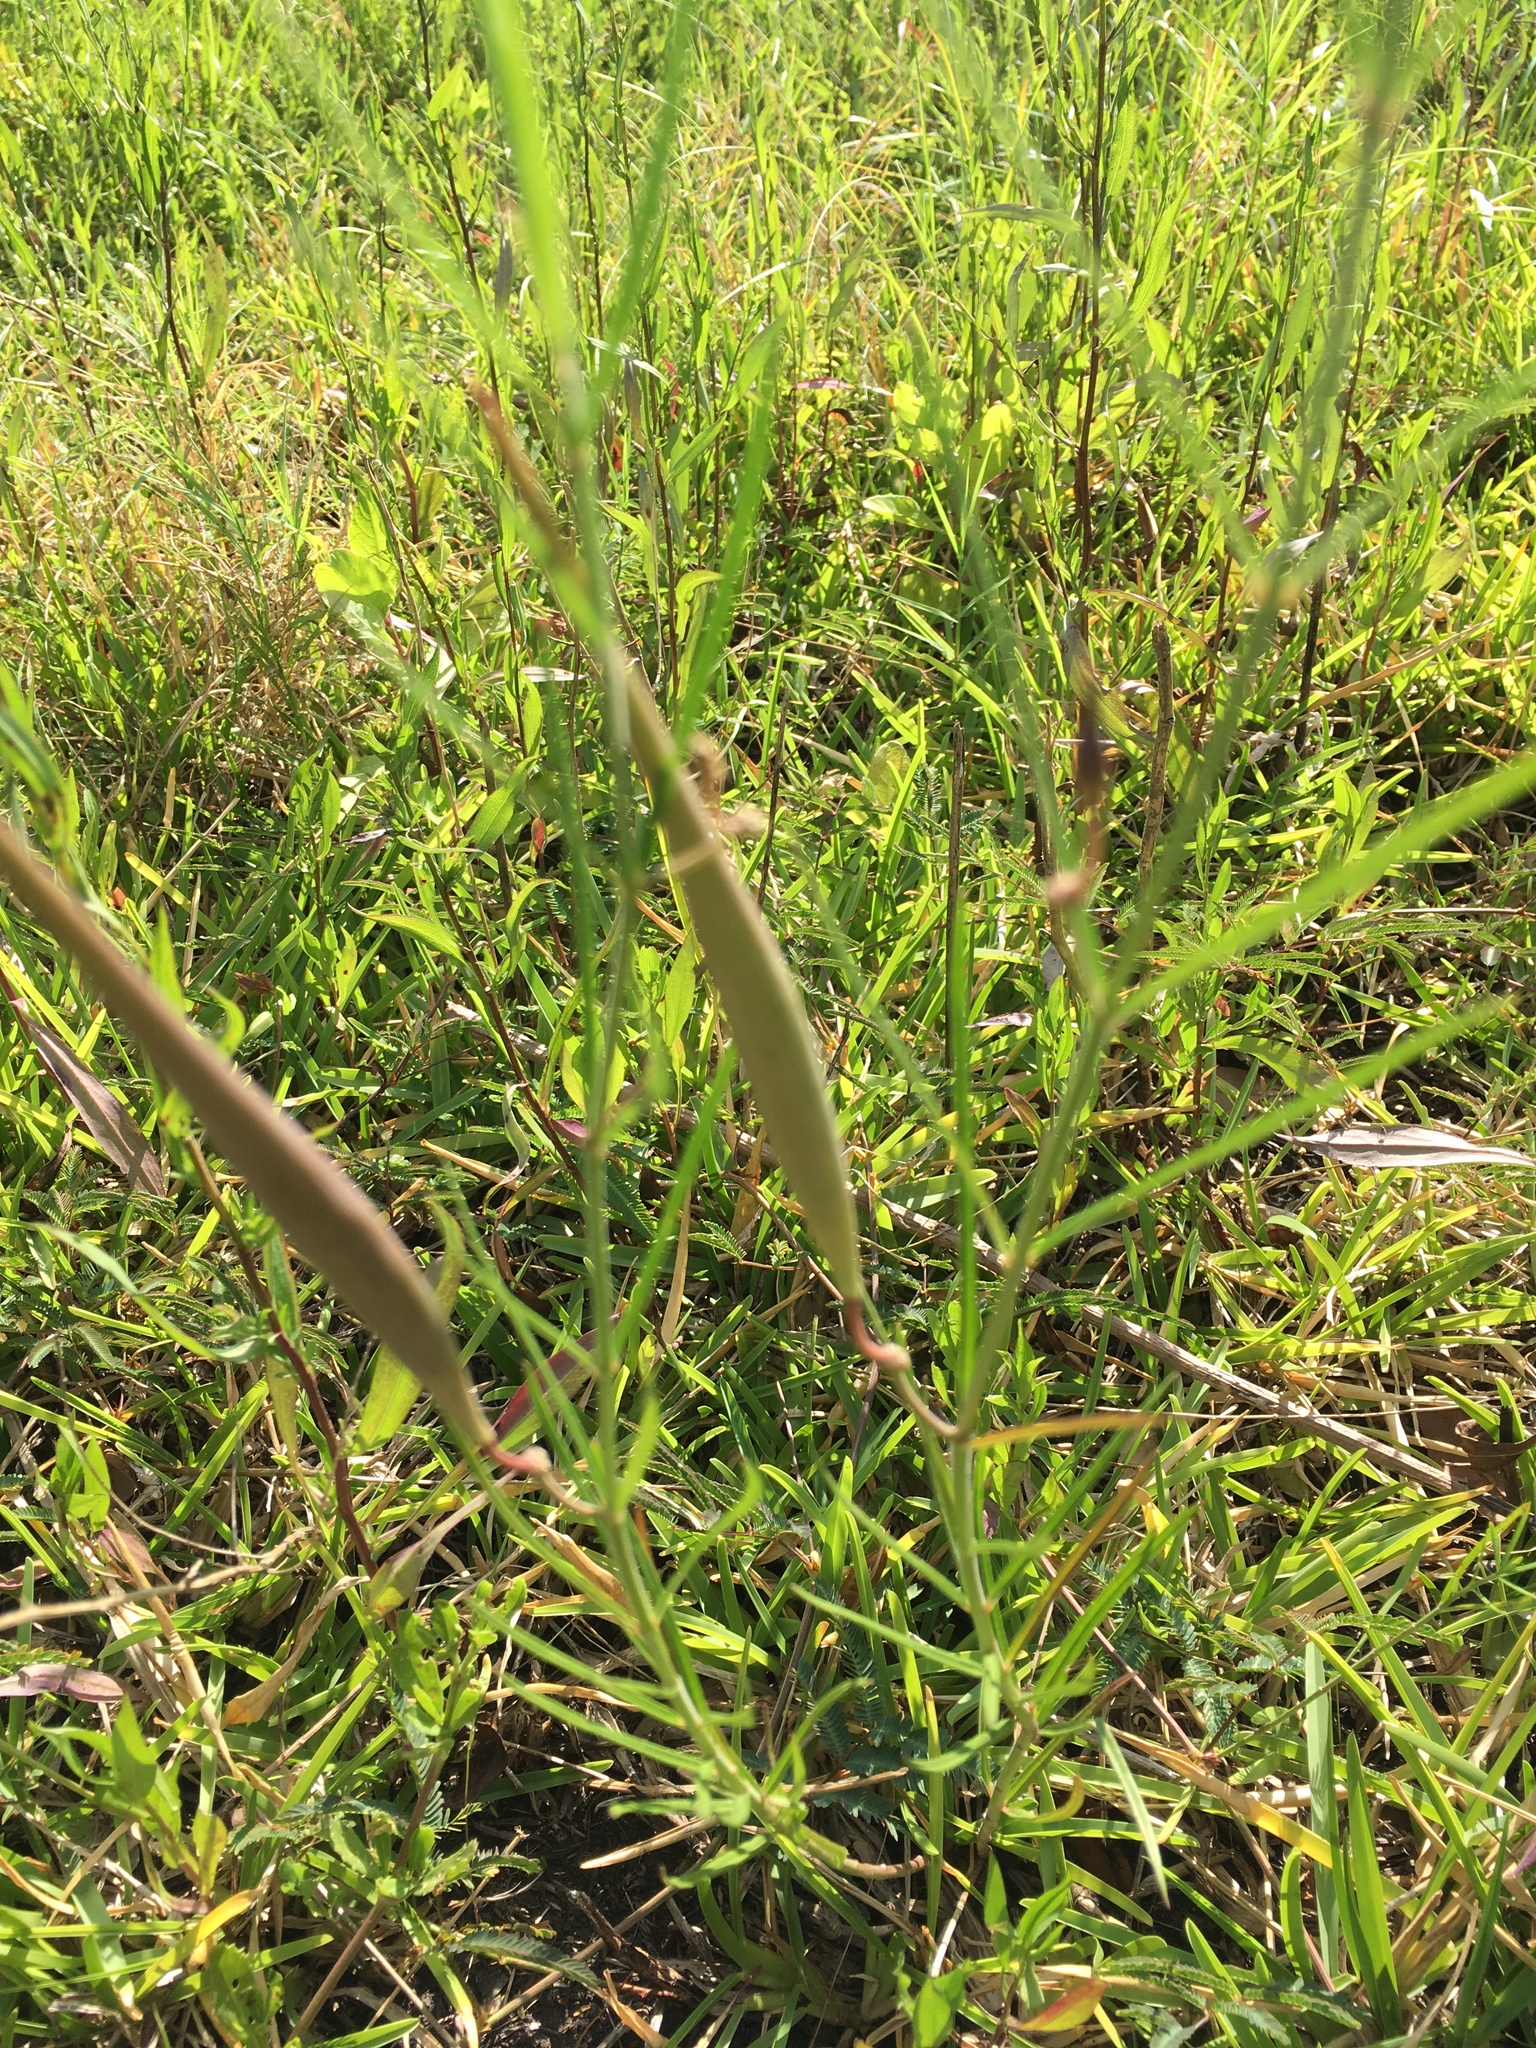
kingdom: Plantae
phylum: Tracheophyta
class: Magnoliopsida
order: Gentianales
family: Apocynaceae
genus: Asclepias
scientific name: Asclepias verticillata
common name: Eastern whorled milkweed
